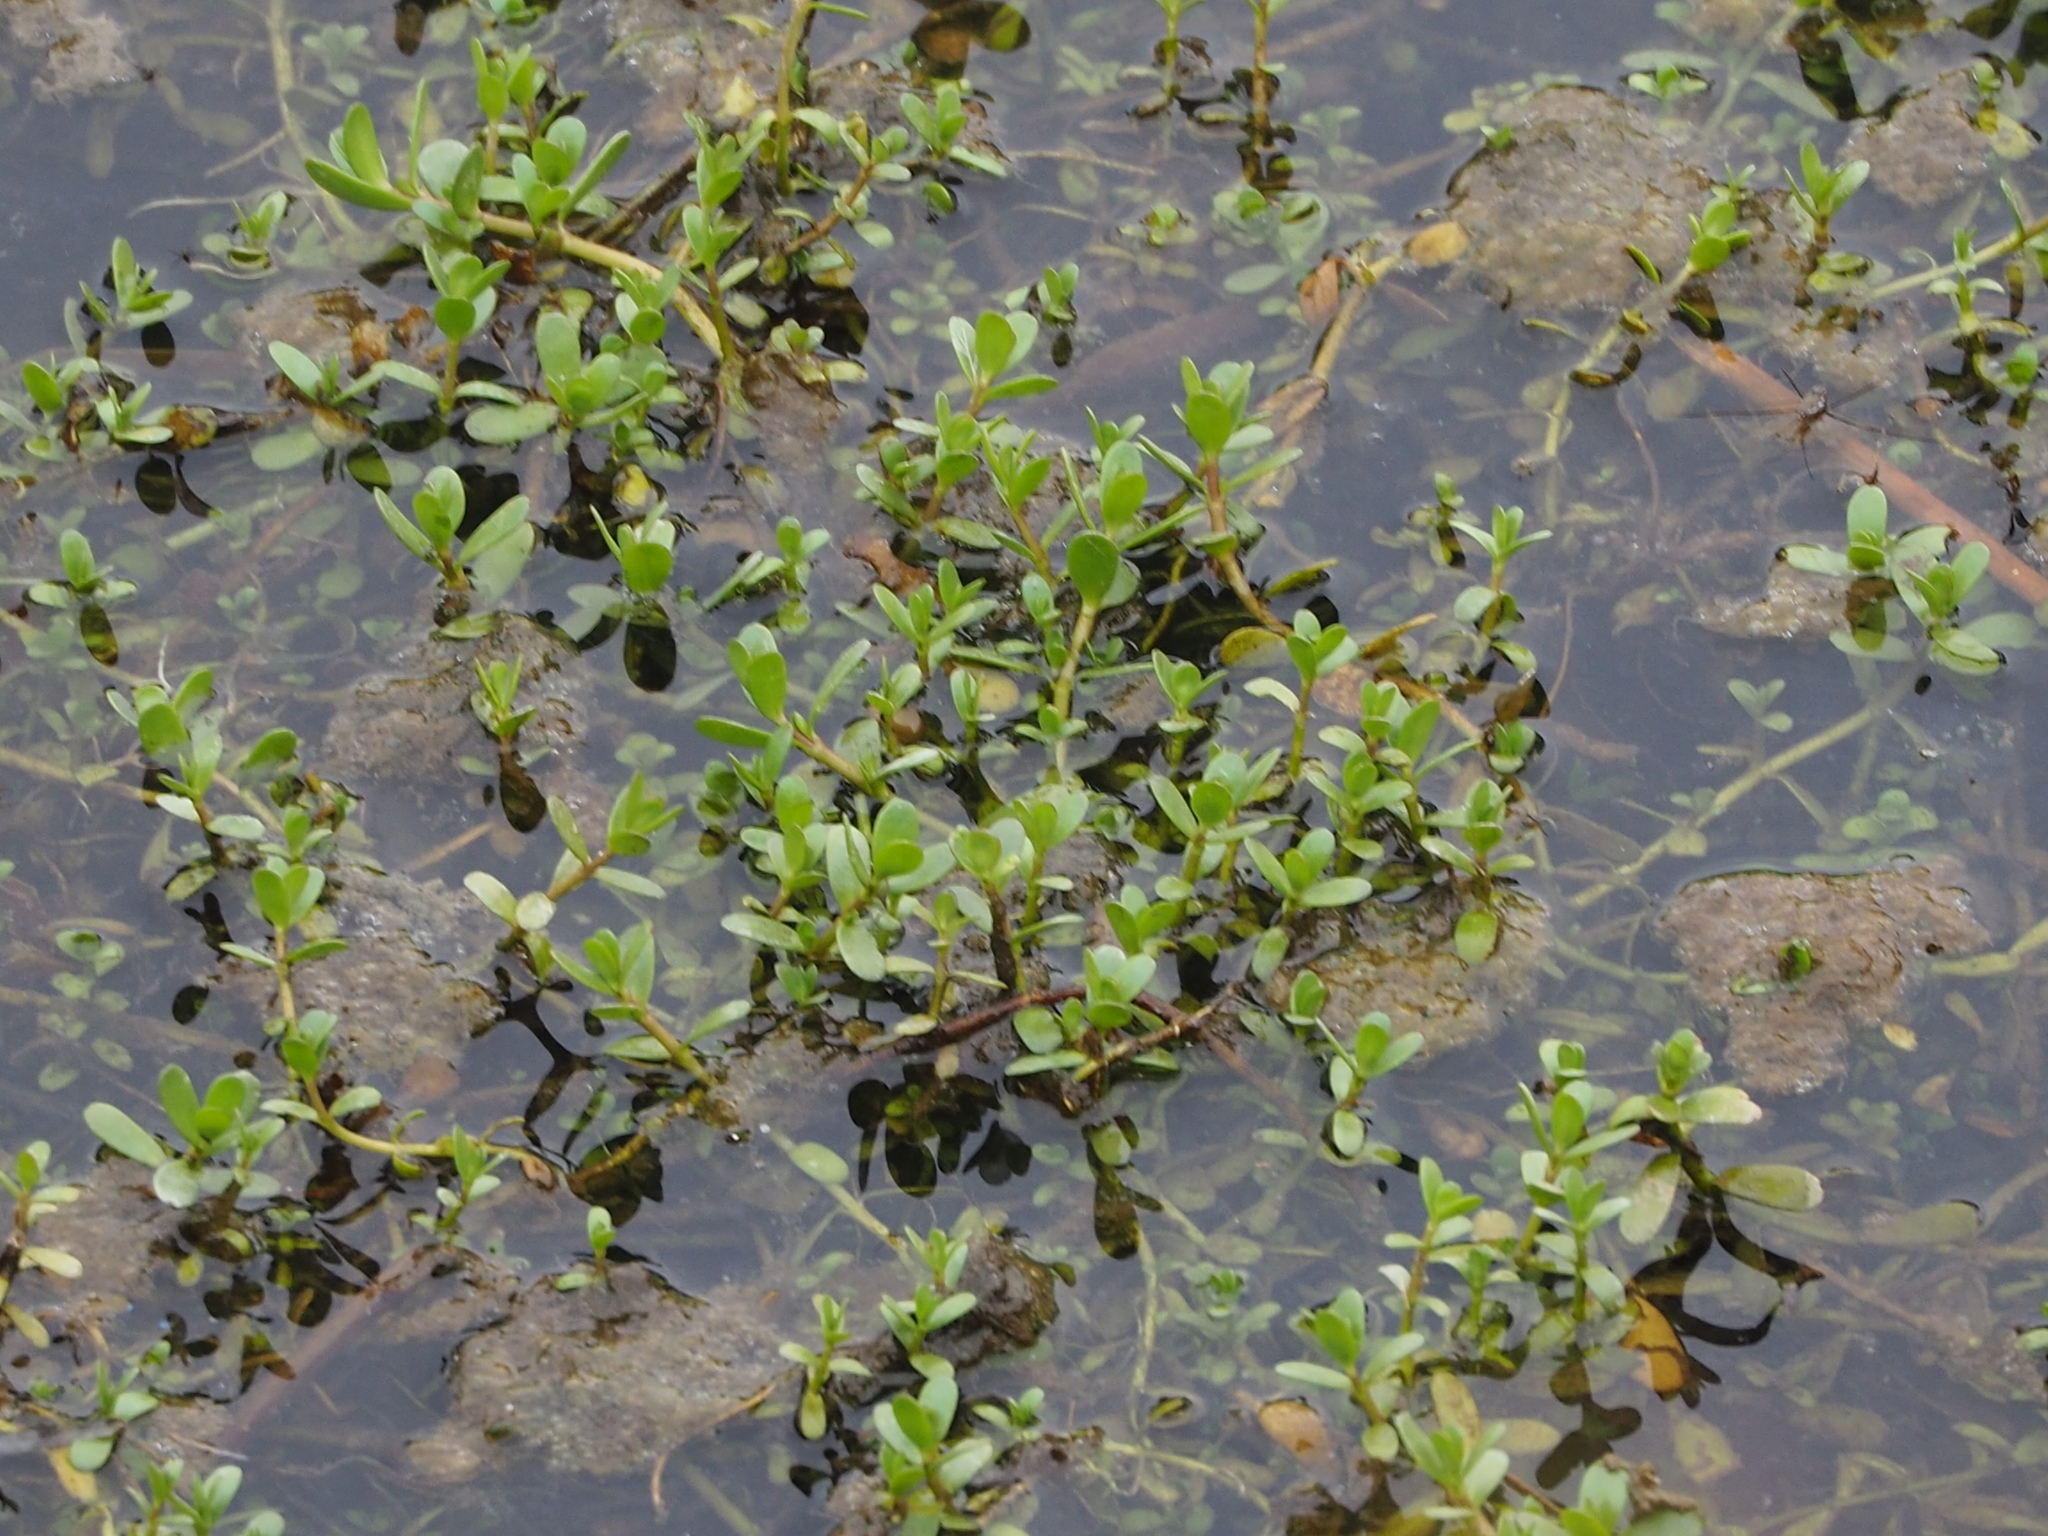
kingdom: Plantae
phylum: Tracheophyta
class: Magnoliopsida
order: Lamiales
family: Plantaginaceae
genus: Bacopa
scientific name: Bacopa monnieri
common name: Indian-pennywort
